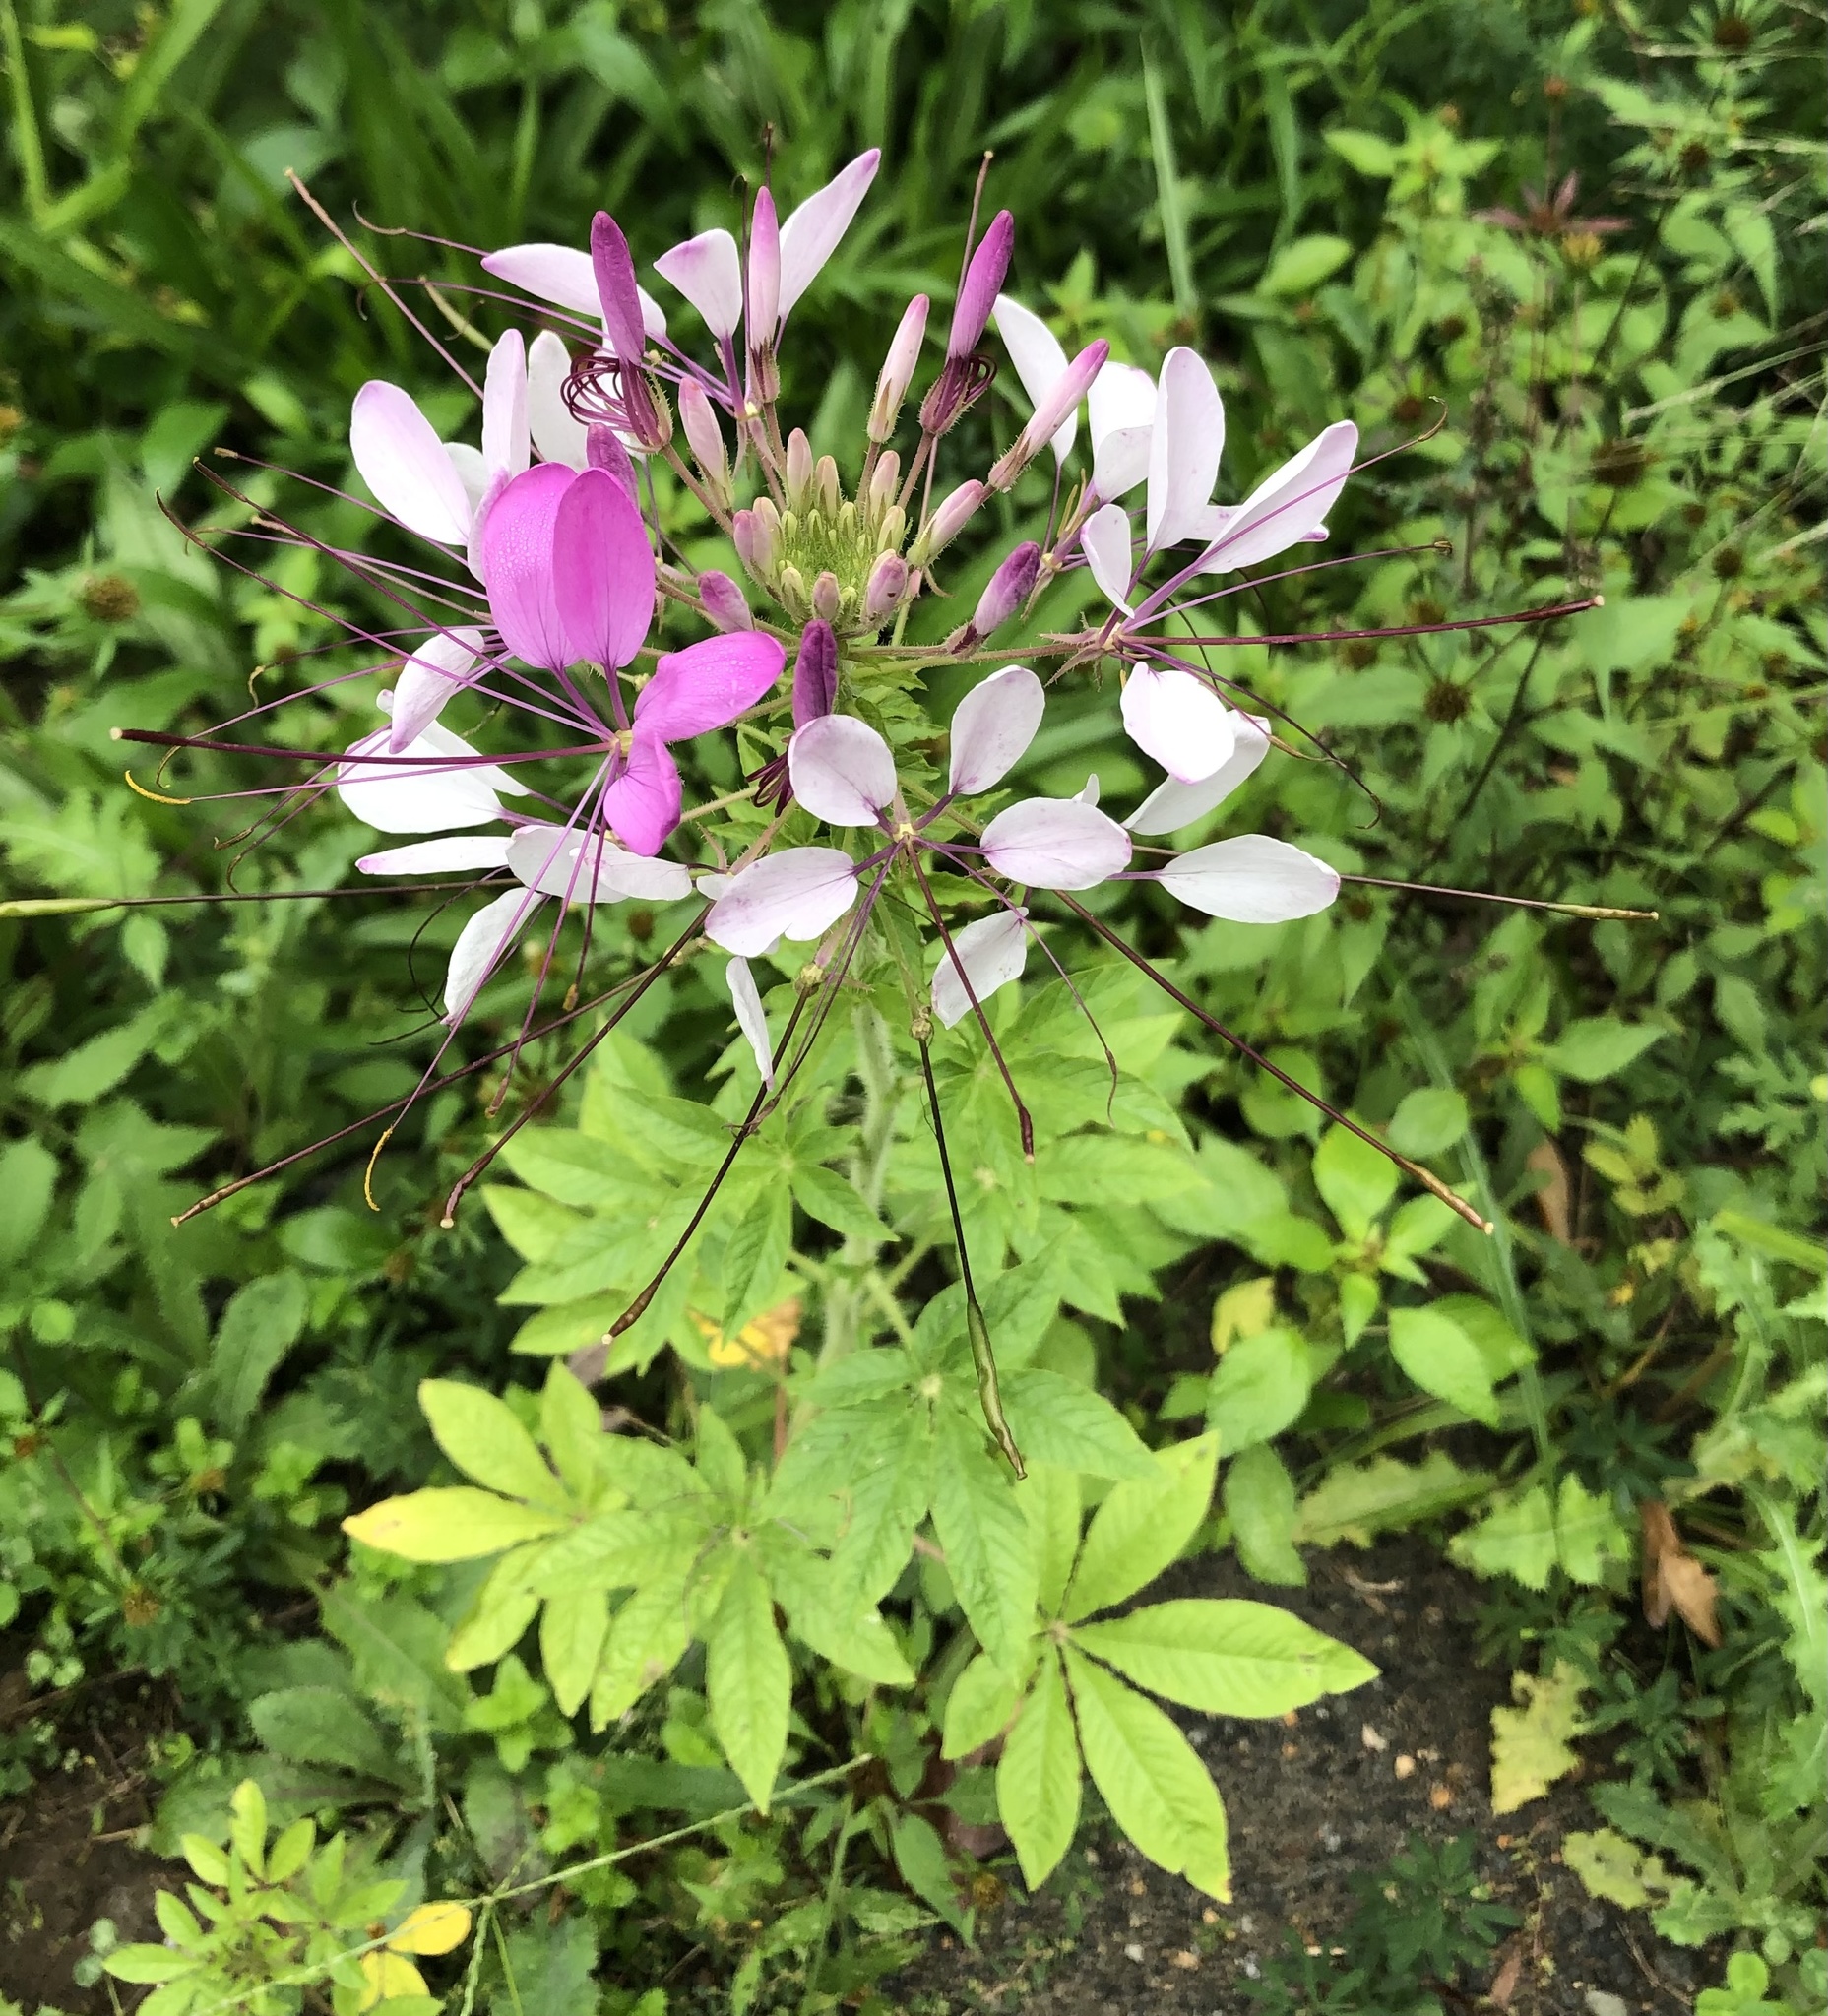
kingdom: Plantae
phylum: Tracheophyta
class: Magnoliopsida
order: Brassicales
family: Cleomaceae
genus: Tarenaya
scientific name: Tarenaya houtteana
